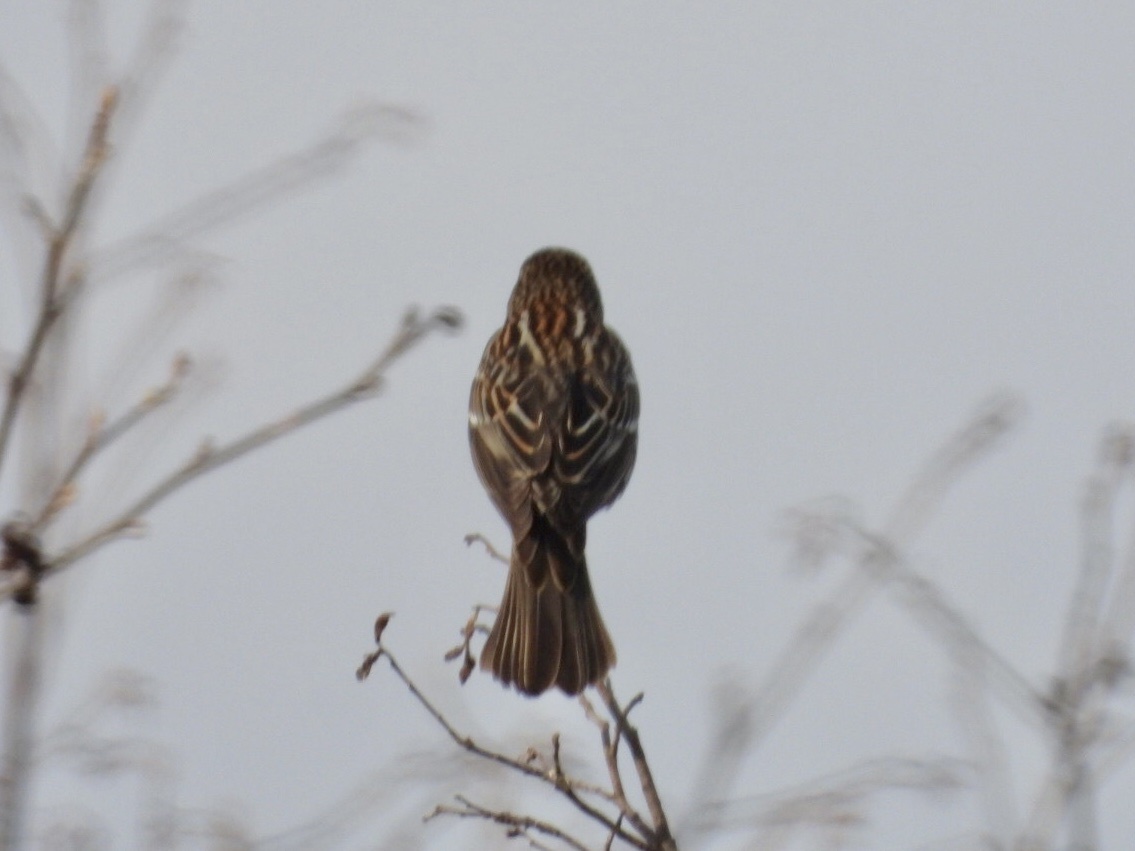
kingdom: Animalia
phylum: Chordata
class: Aves
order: Passeriformes
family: Icteridae
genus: Agelaius
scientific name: Agelaius phoeniceus
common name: Red-winged blackbird
